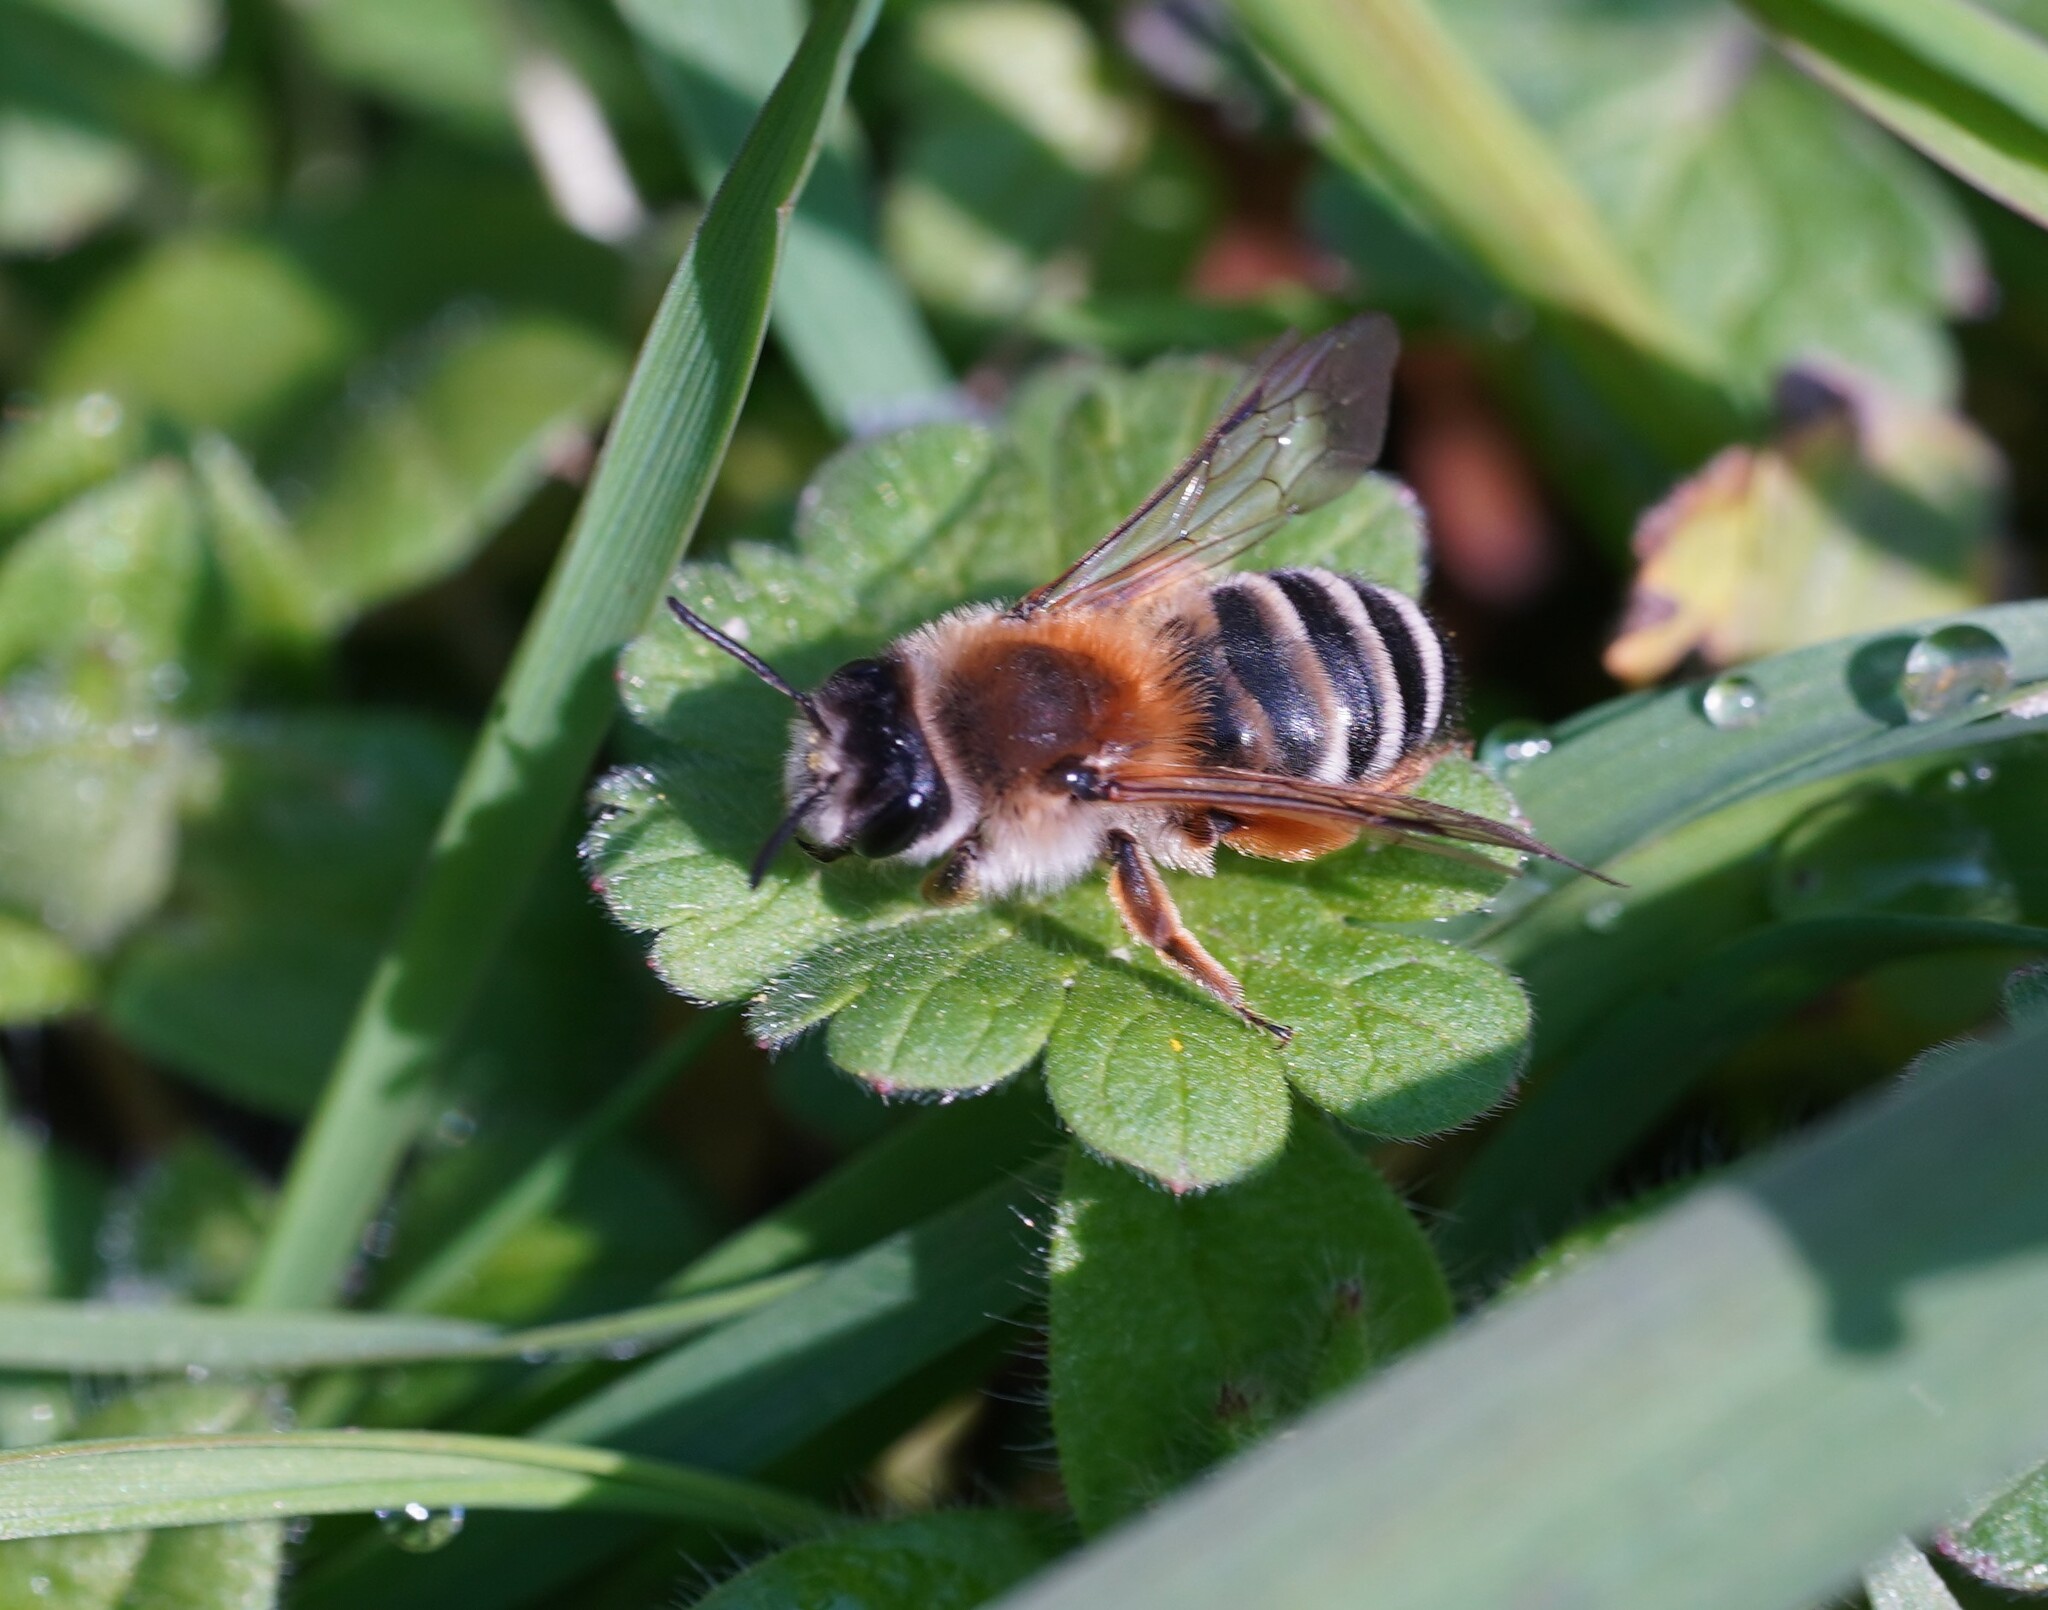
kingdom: Animalia
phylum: Arthropoda
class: Insecta
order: Hymenoptera
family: Andrenidae
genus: Andrena
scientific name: Andrena gravida
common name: White-bellied mining bee
